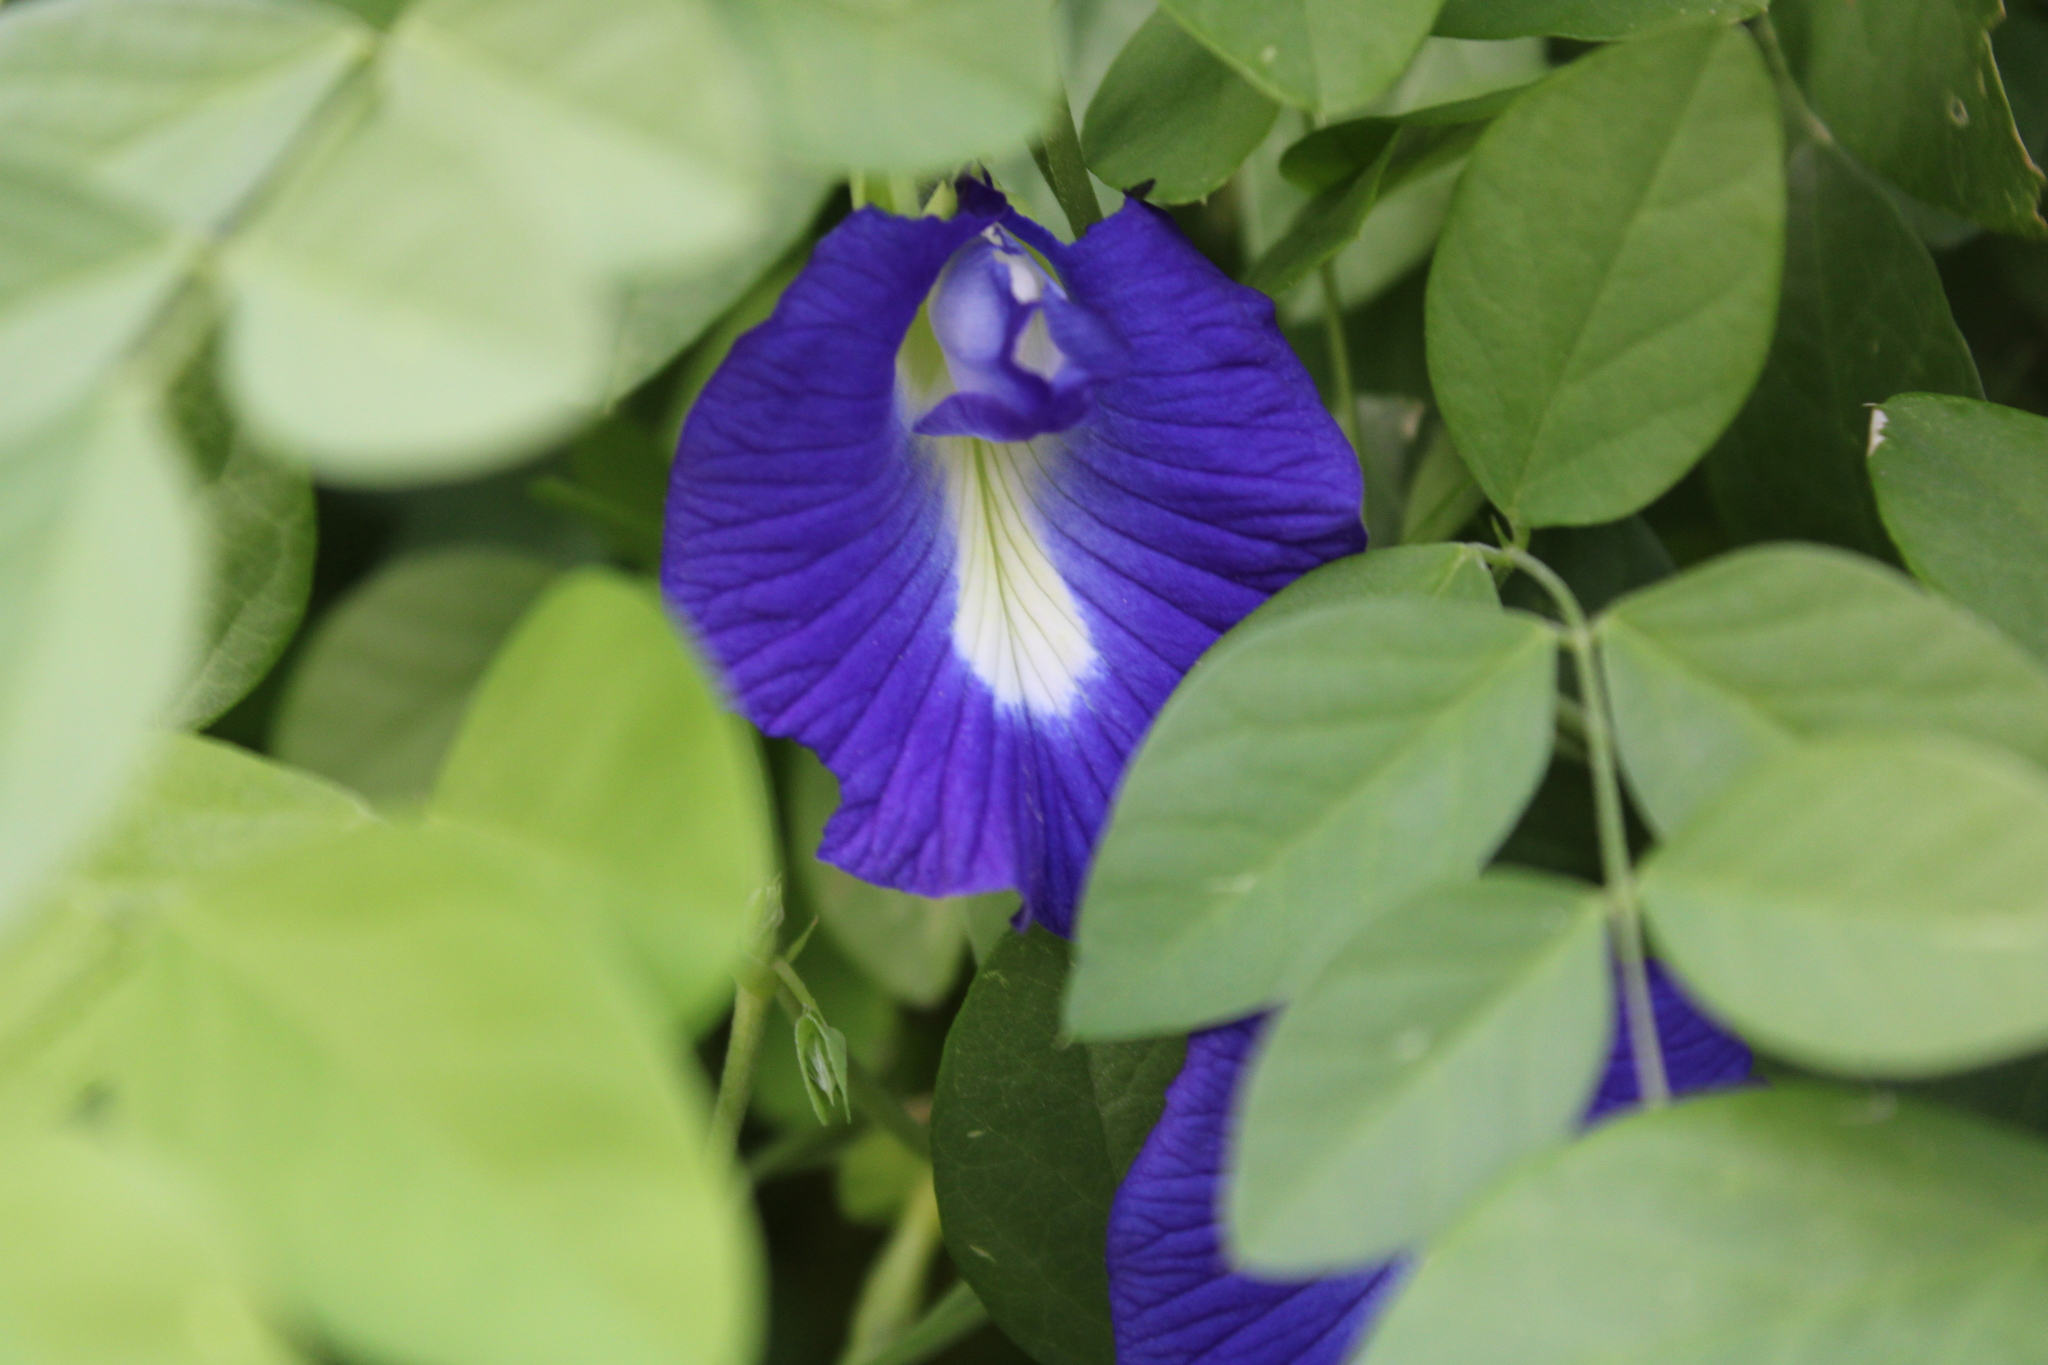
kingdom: Plantae
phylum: Tracheophyta
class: Magnoliopsida
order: Fabales
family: Fabaceae
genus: Clitoria
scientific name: Clitoria ternatea
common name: Asian pigeonwings
